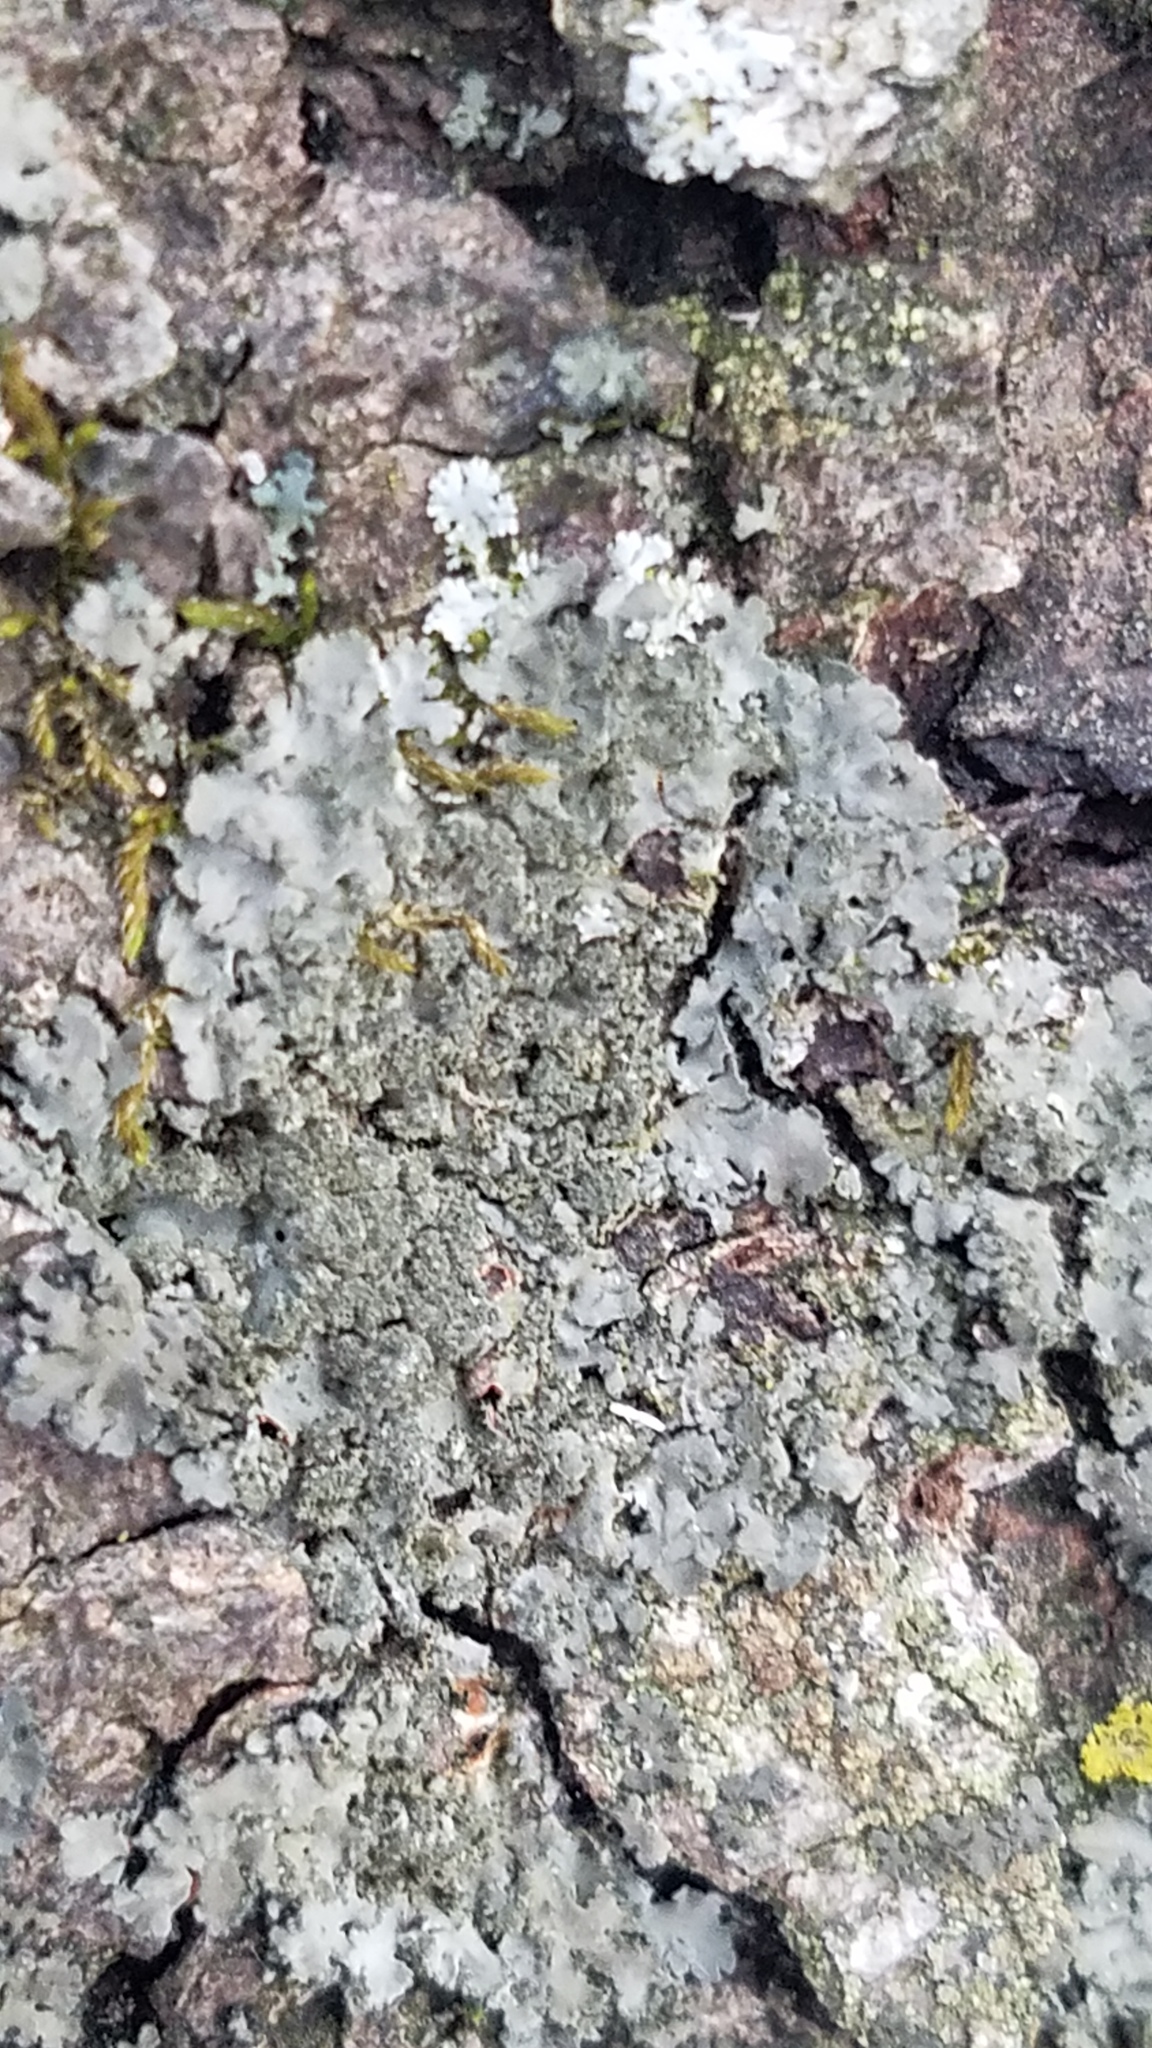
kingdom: Fungi
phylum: Ascomycota
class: Lecanoromycetes
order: Caliciales
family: Physciaceae
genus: Physcia
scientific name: Physcia millegrana
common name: Rosette lichen
